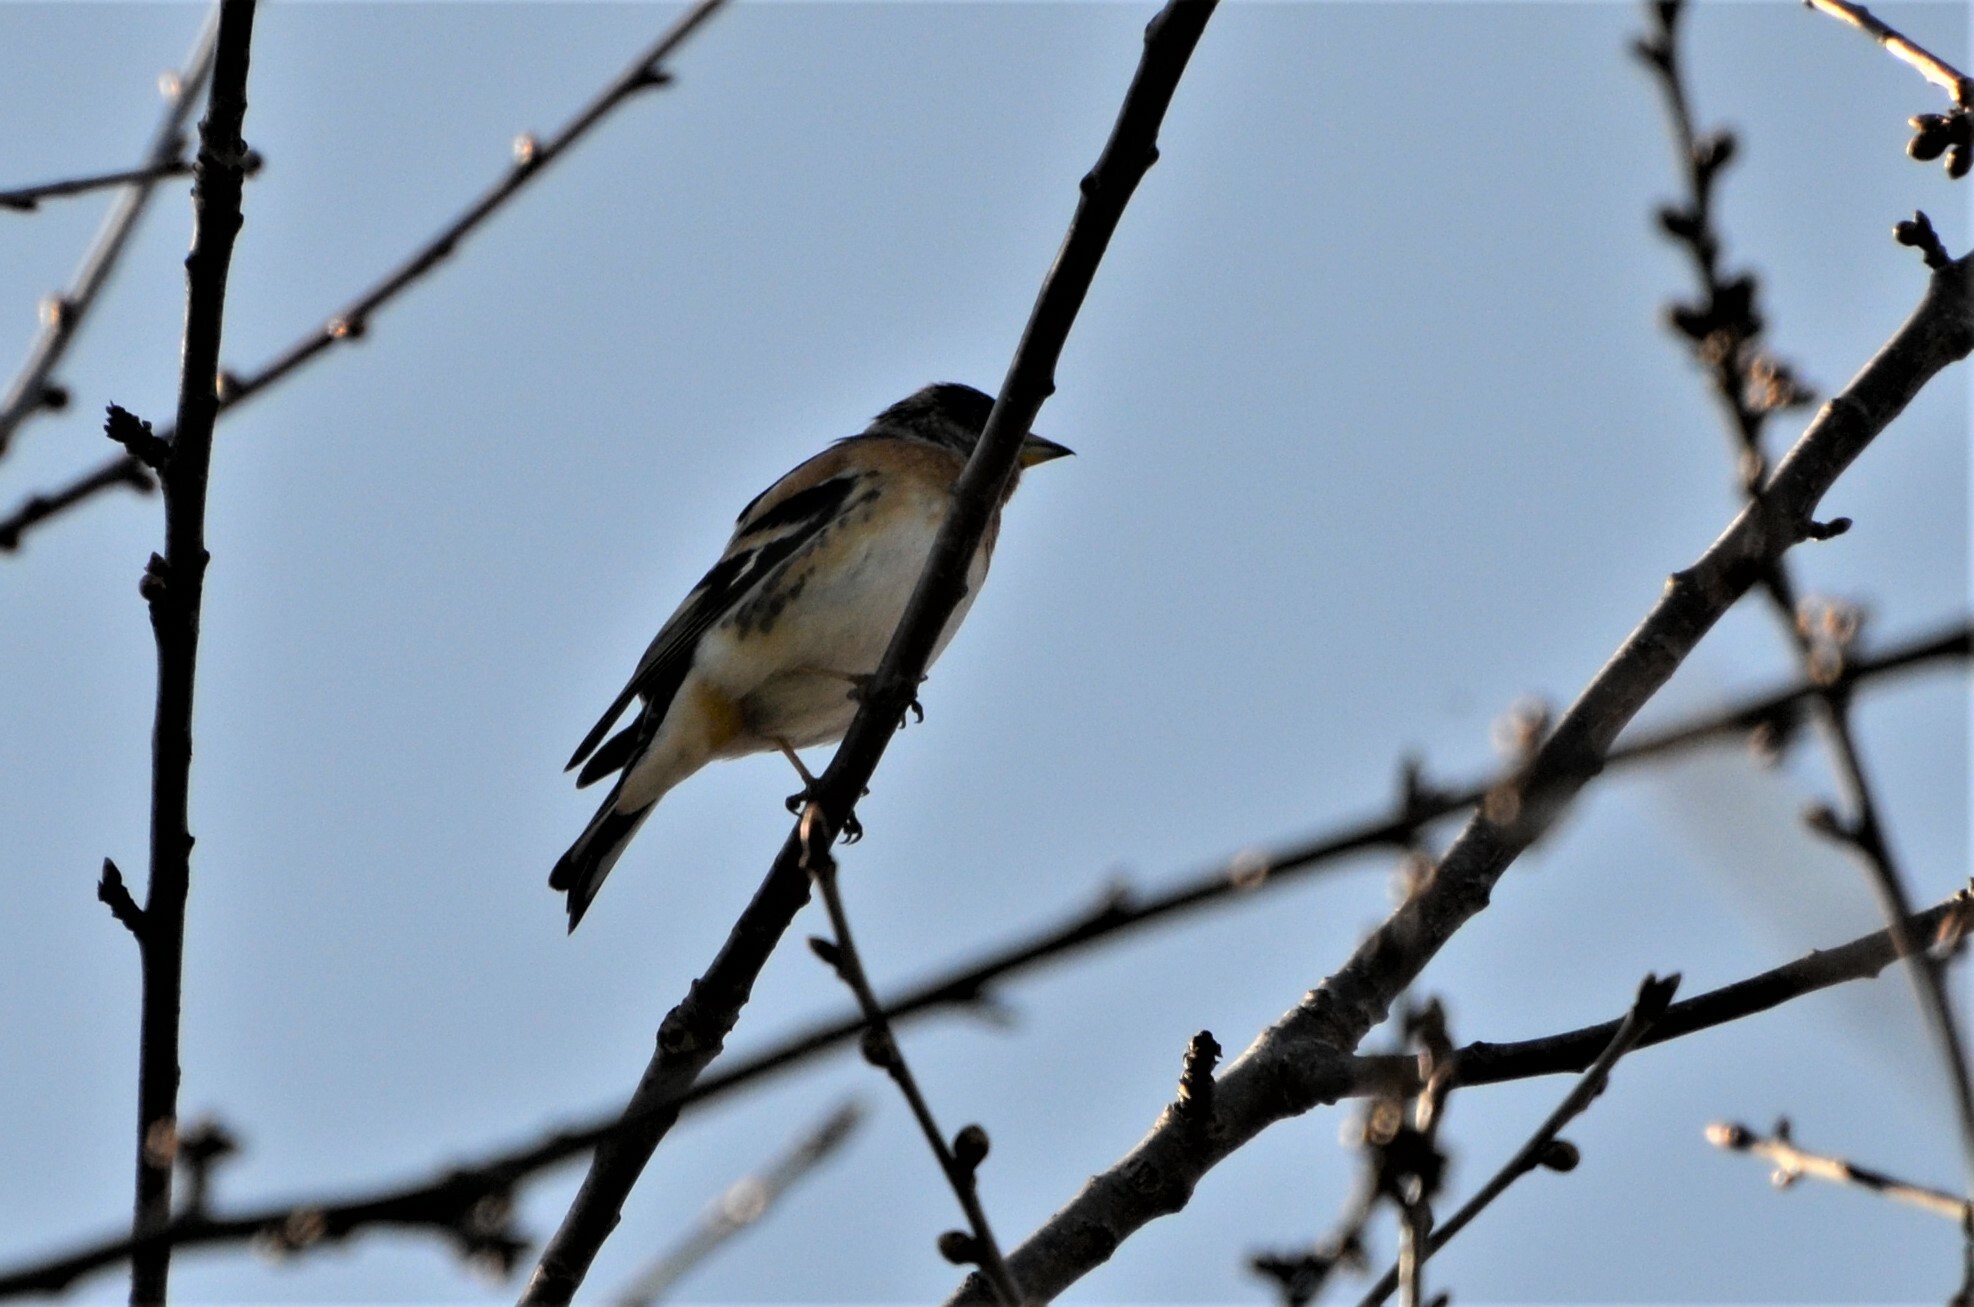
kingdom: Animalia
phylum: Chordata
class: Aves
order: Passeriformes
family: Fringillidae
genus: Fringilla
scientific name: Fringilla montifringilla
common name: Brambling
